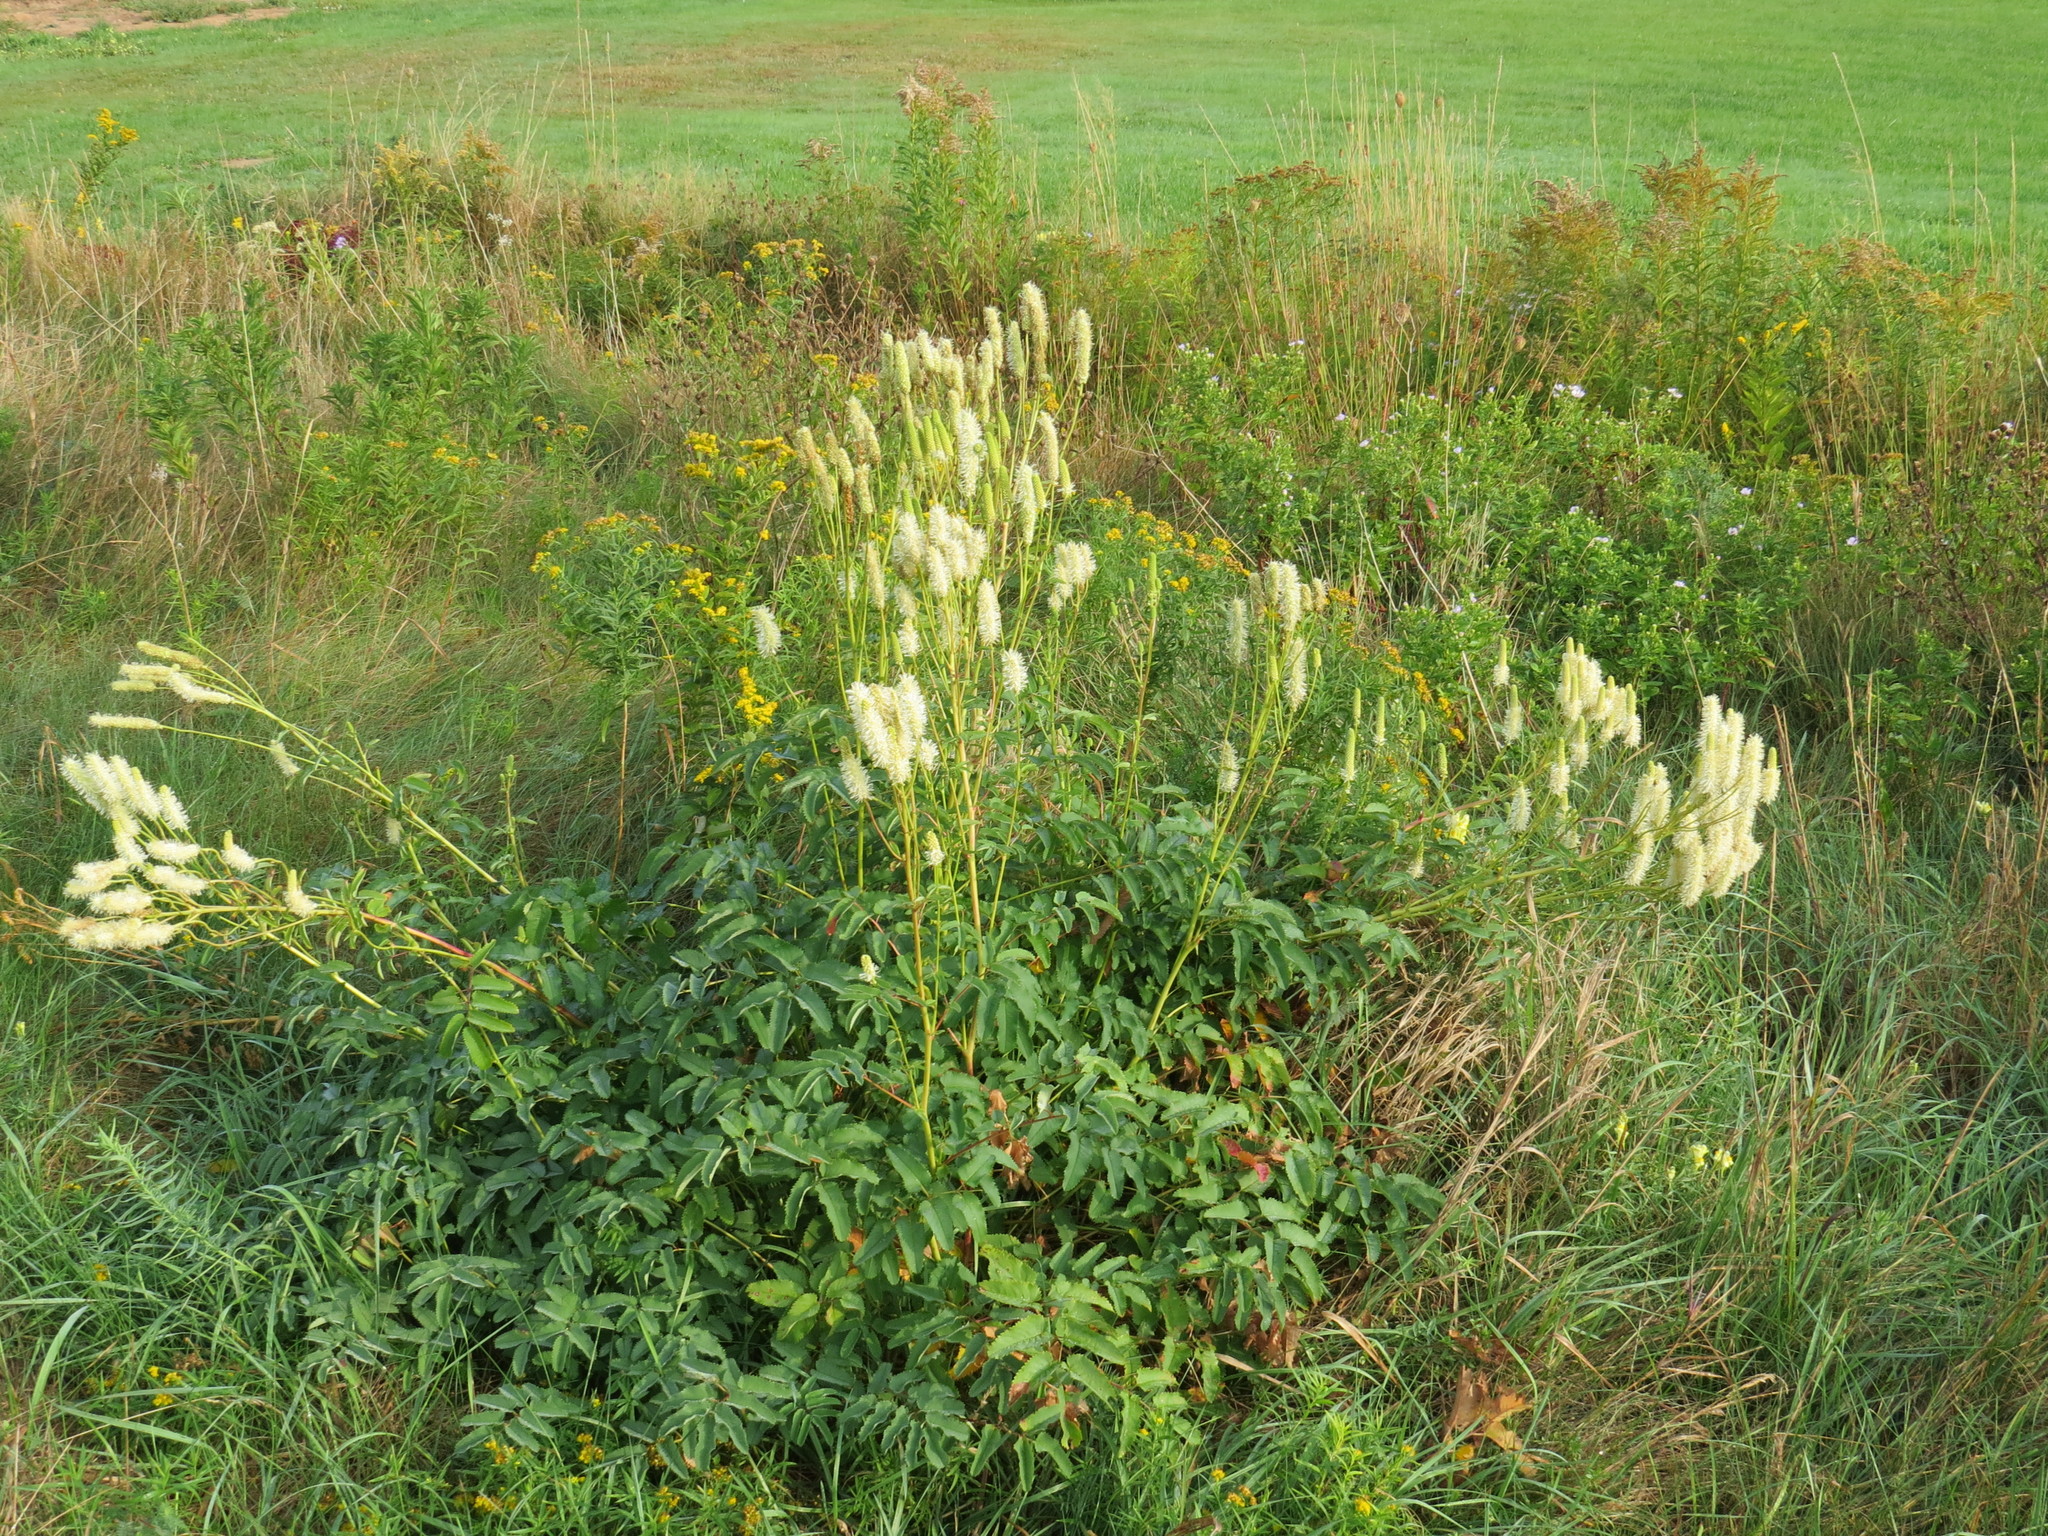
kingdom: Plantae
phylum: Tracheophyta
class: Magnoliopsida
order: Rosales
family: Rosaceae
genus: Sanguisorba
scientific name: Sanguisorba canadensis
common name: White burnet
